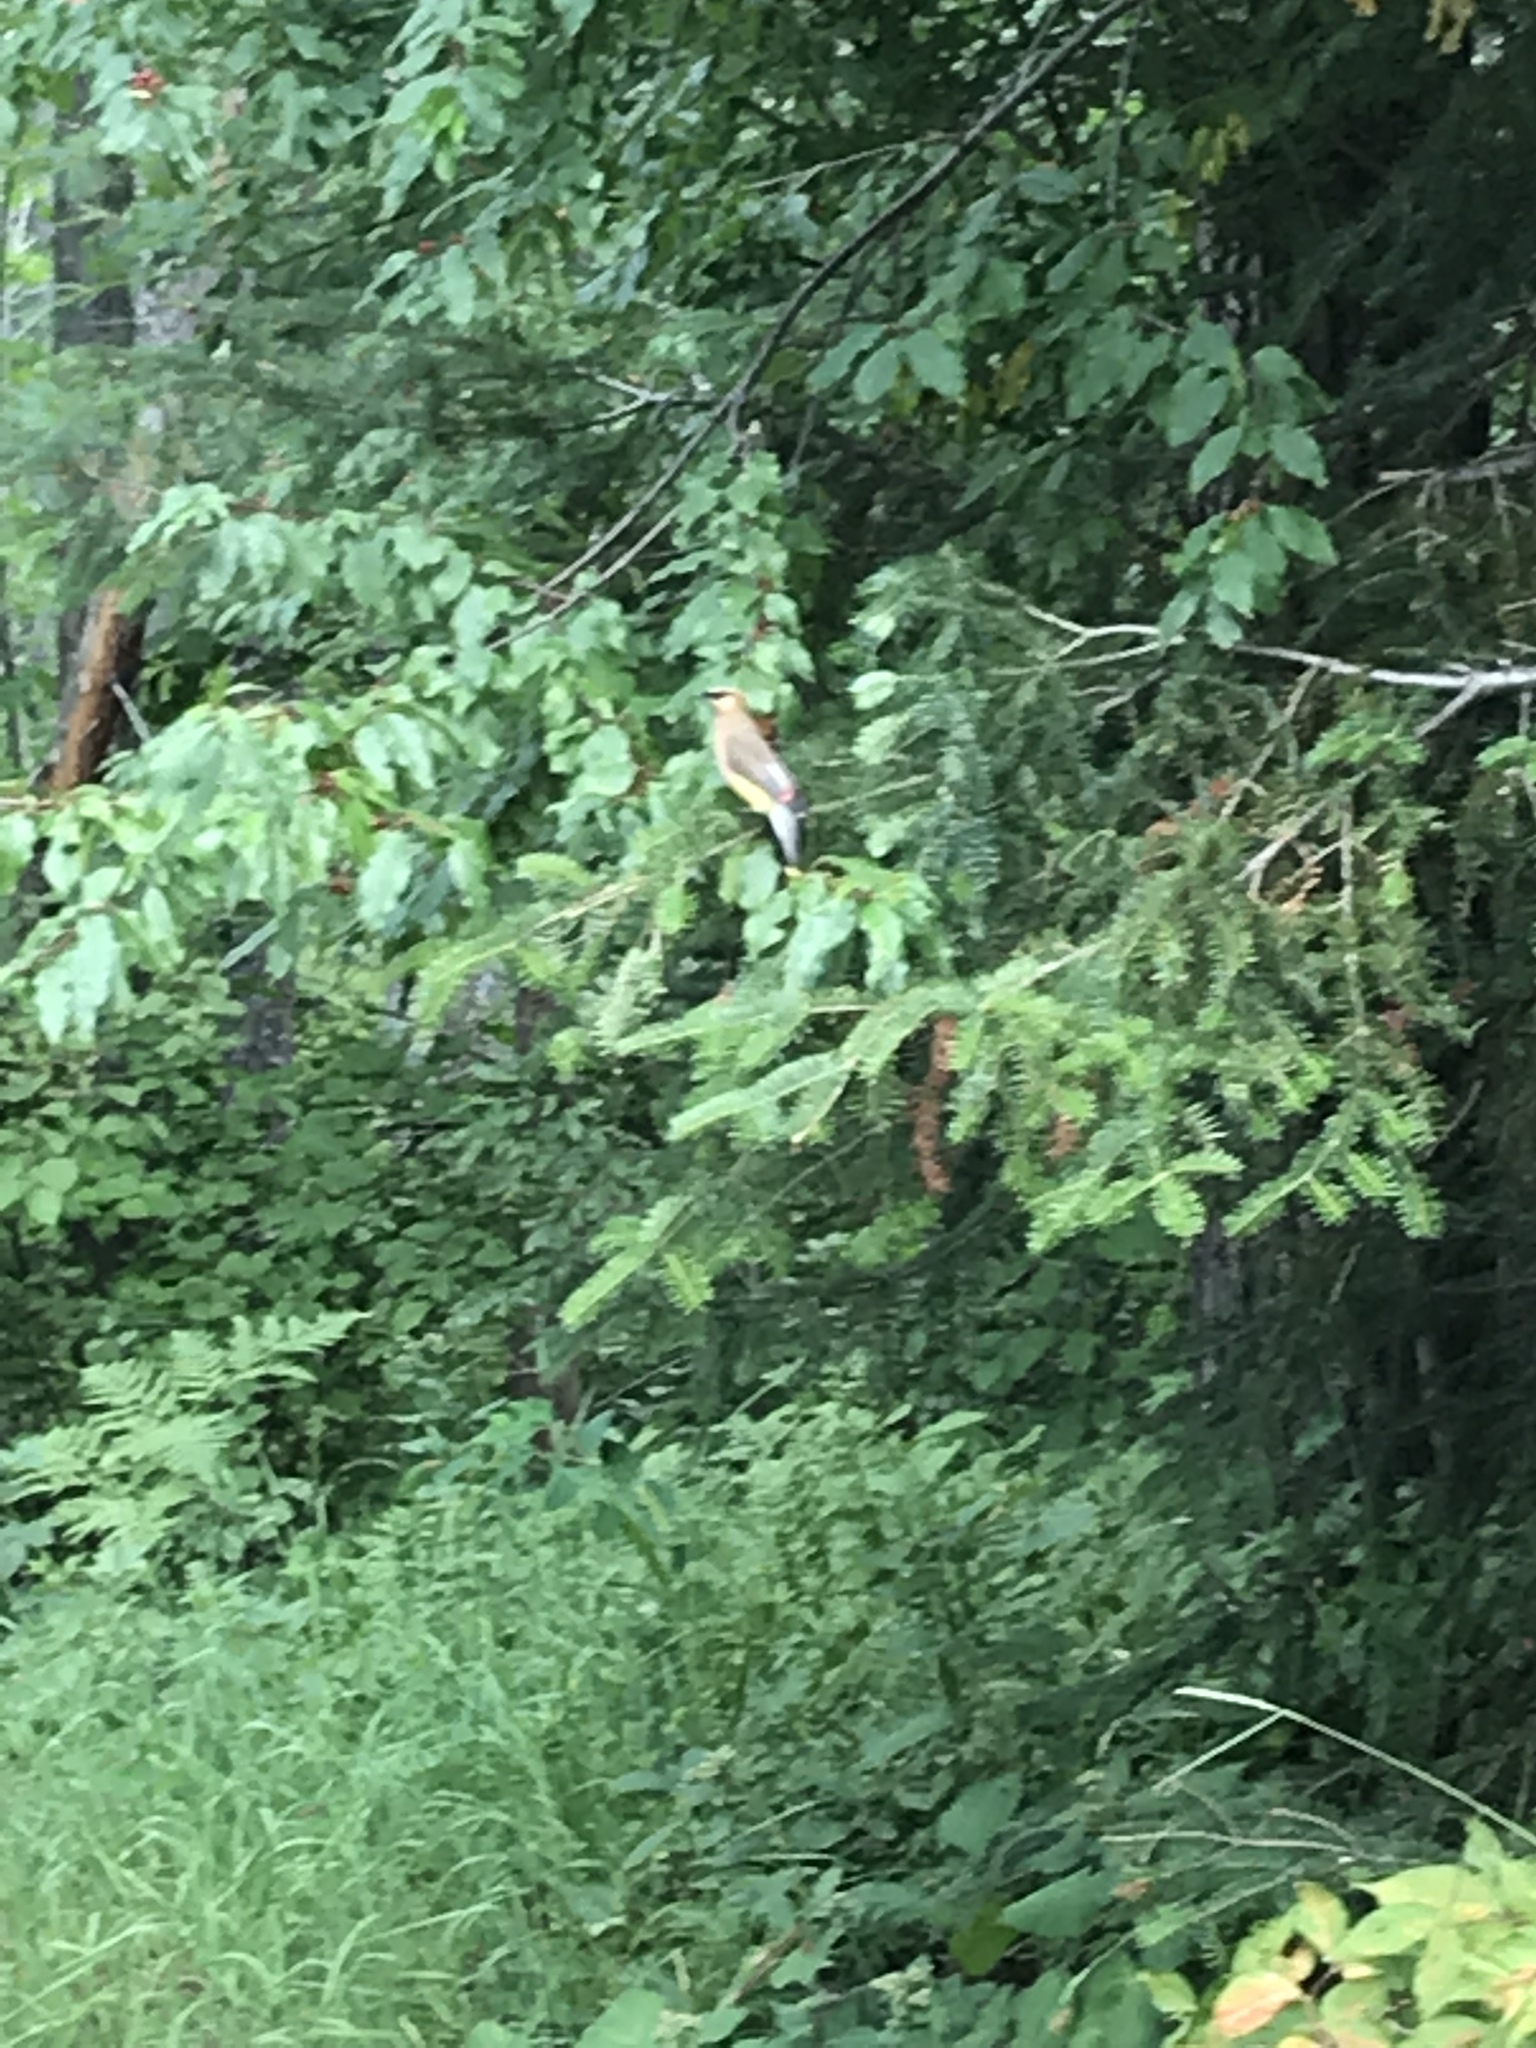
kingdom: Animalia
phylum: Chordata
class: Aves
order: Passeriformes
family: Bombycillidae
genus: Bombycilla
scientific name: Bombycilla cedrorum
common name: Cedar waxwing
